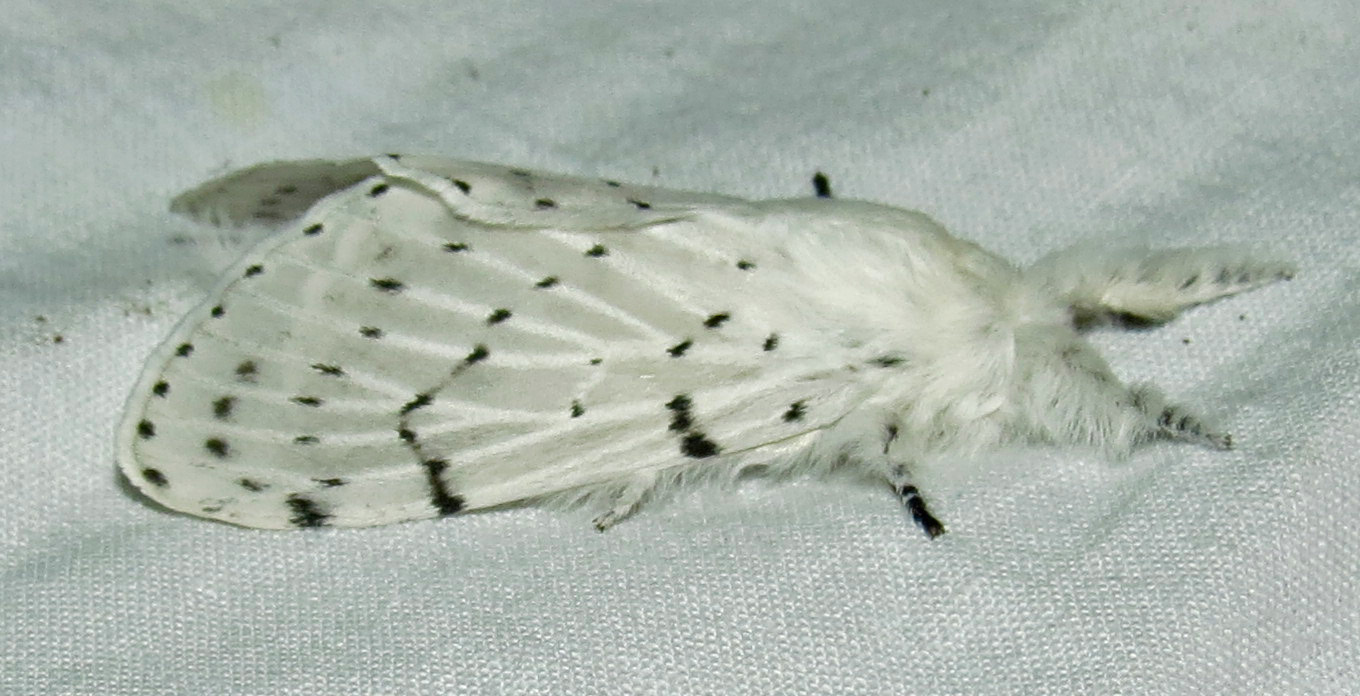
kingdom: Animalia
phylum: Arthropoda
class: Insecta
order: Lepidoptera
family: Lasiocampidae
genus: Artace
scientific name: Artace cribrarius
